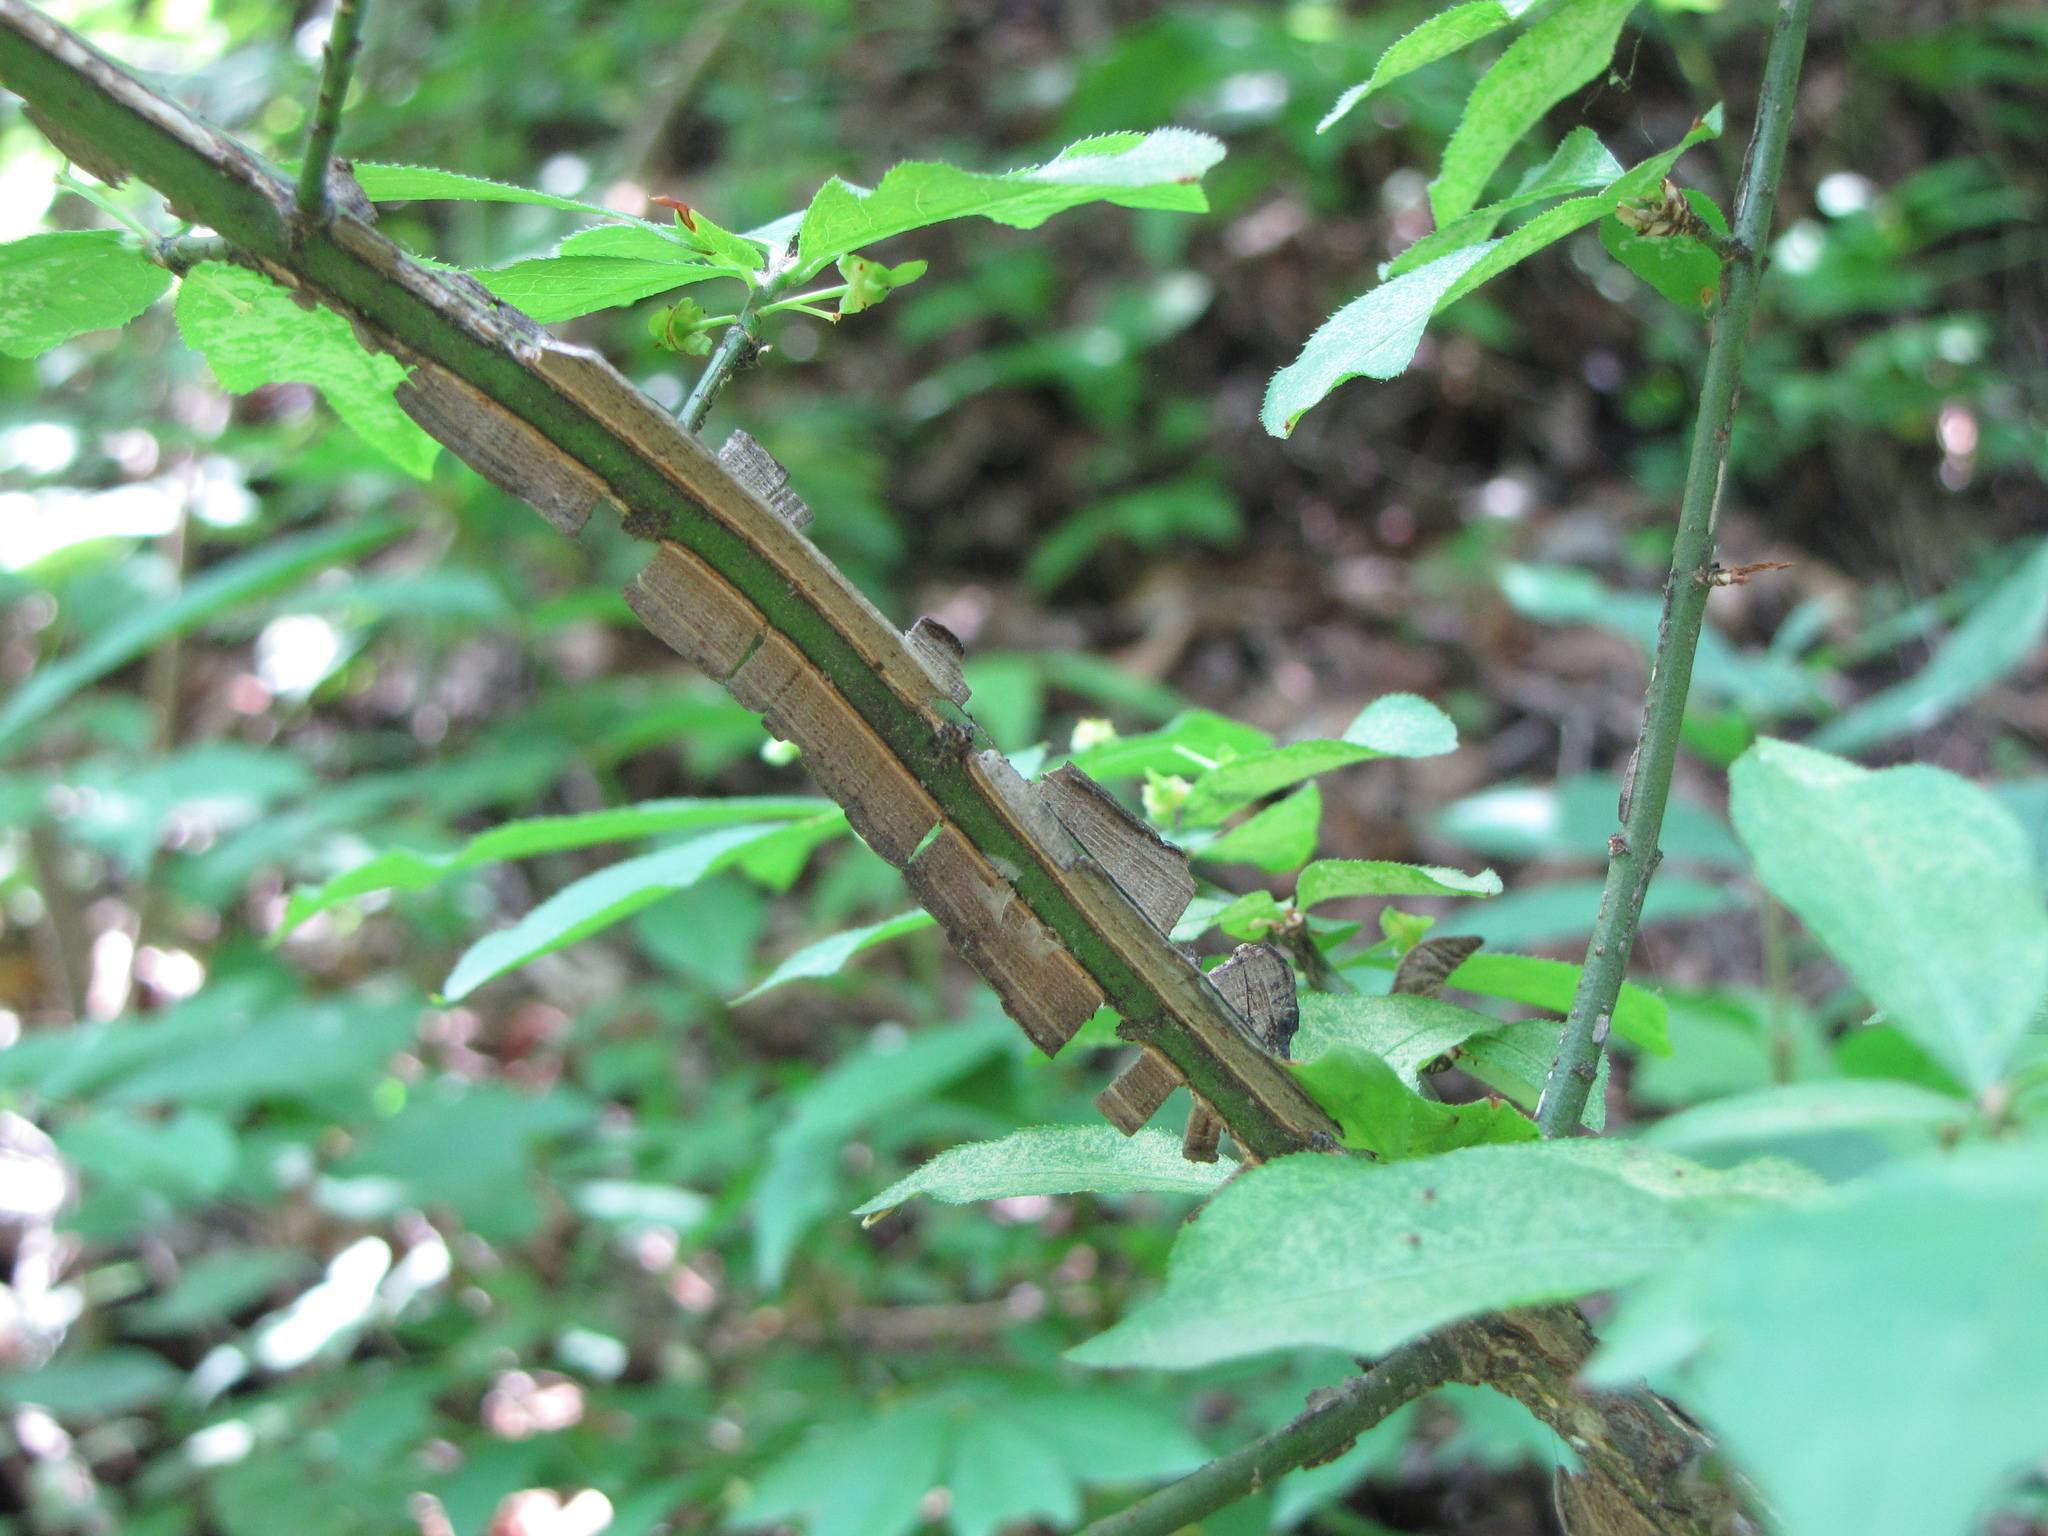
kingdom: Plantae
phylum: Tracheophyta
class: Magnoliopsida
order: Celastrales
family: Celastraceae
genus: Euonymus
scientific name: Euonymus alatus
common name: Winged euonymus
